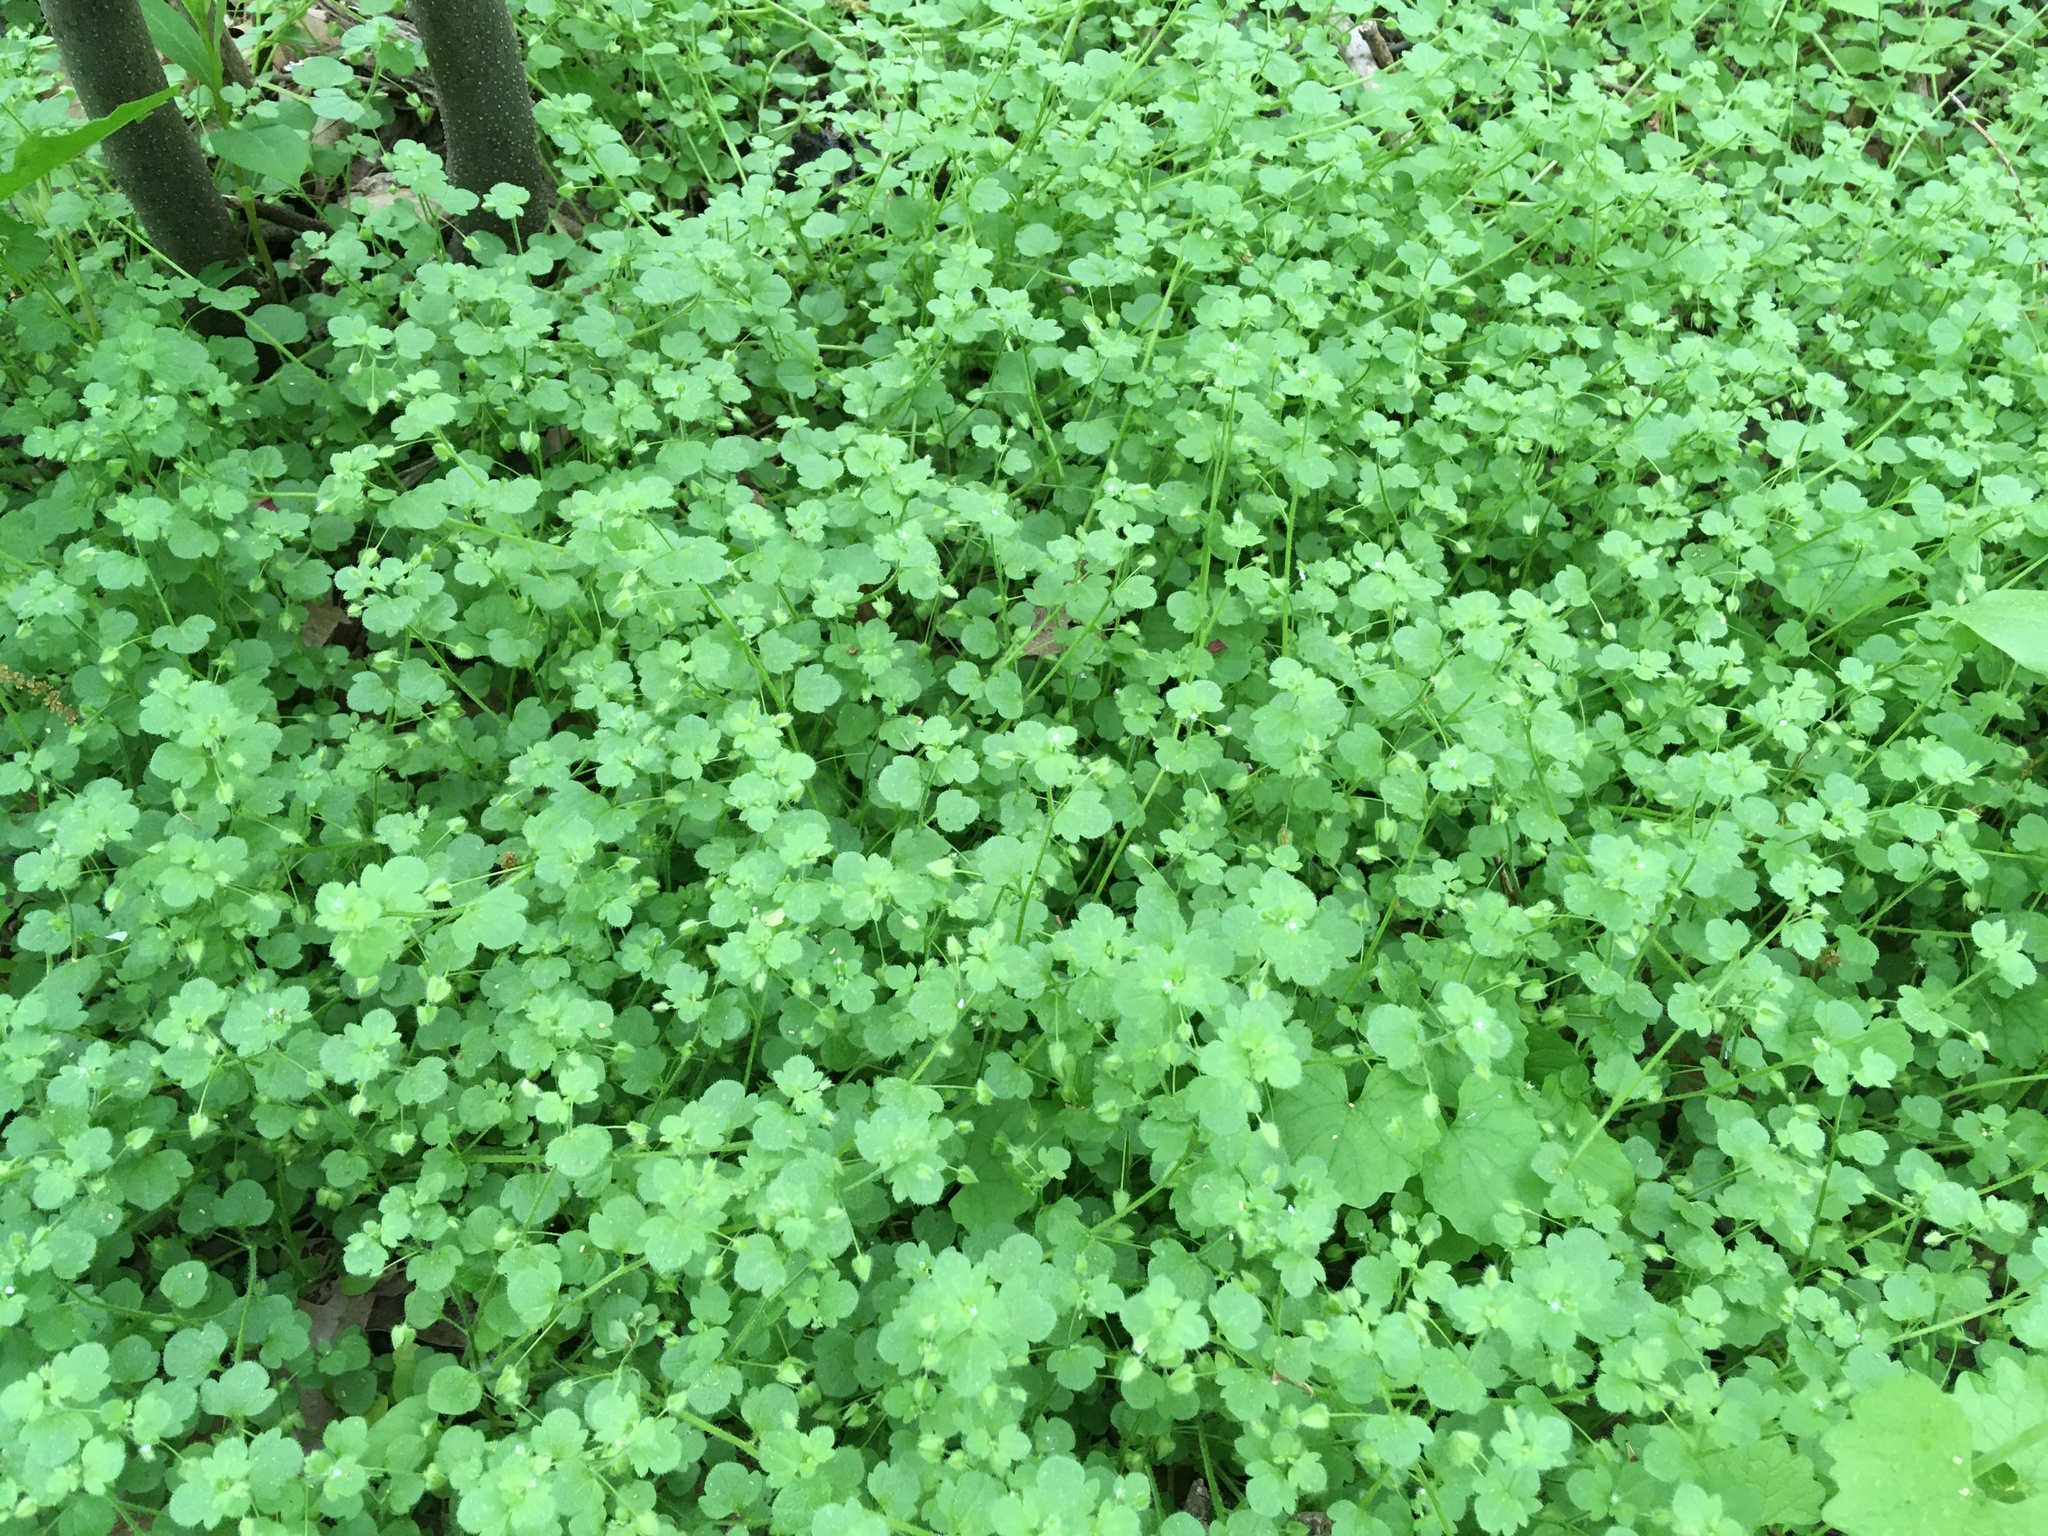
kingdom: Plantae
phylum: Tracheophyta
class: Magnoliopsida
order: Lamiales
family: Plantaginaceae
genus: Veronica
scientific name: Veronica hederifolia
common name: Ivy-leaved speedwell
